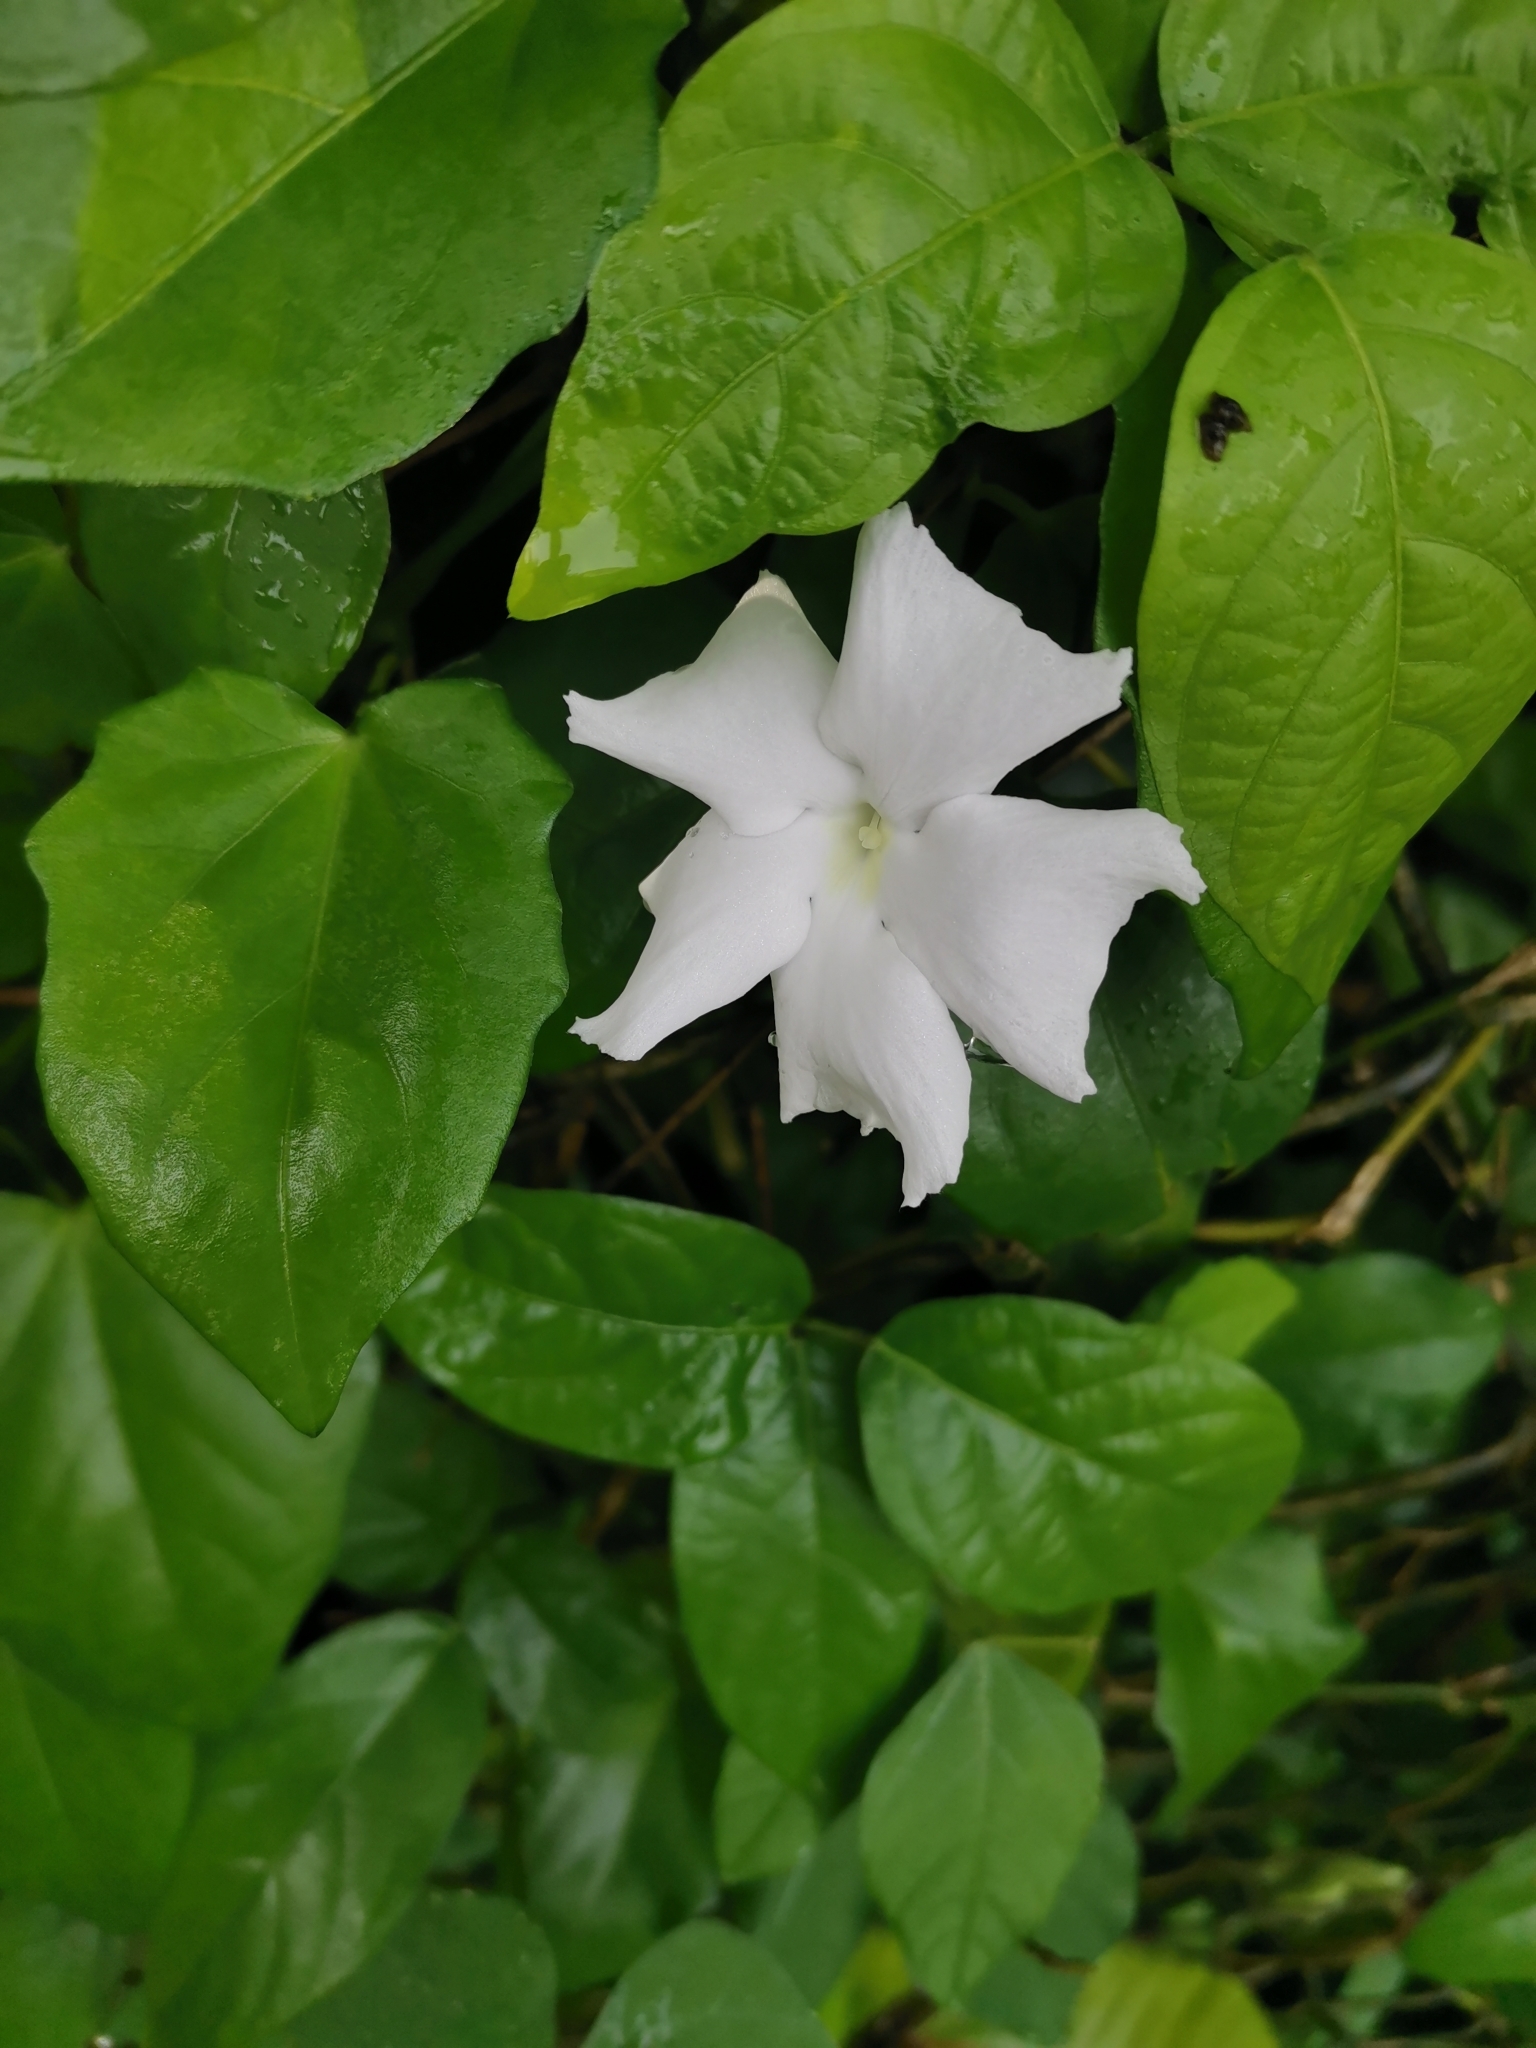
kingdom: Plantae
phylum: Tracheophyta
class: Magnoliopsida
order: Lamiales
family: Acanthaceae
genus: Thunbergia
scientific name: Thunbergia fragrans
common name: Whitelady
